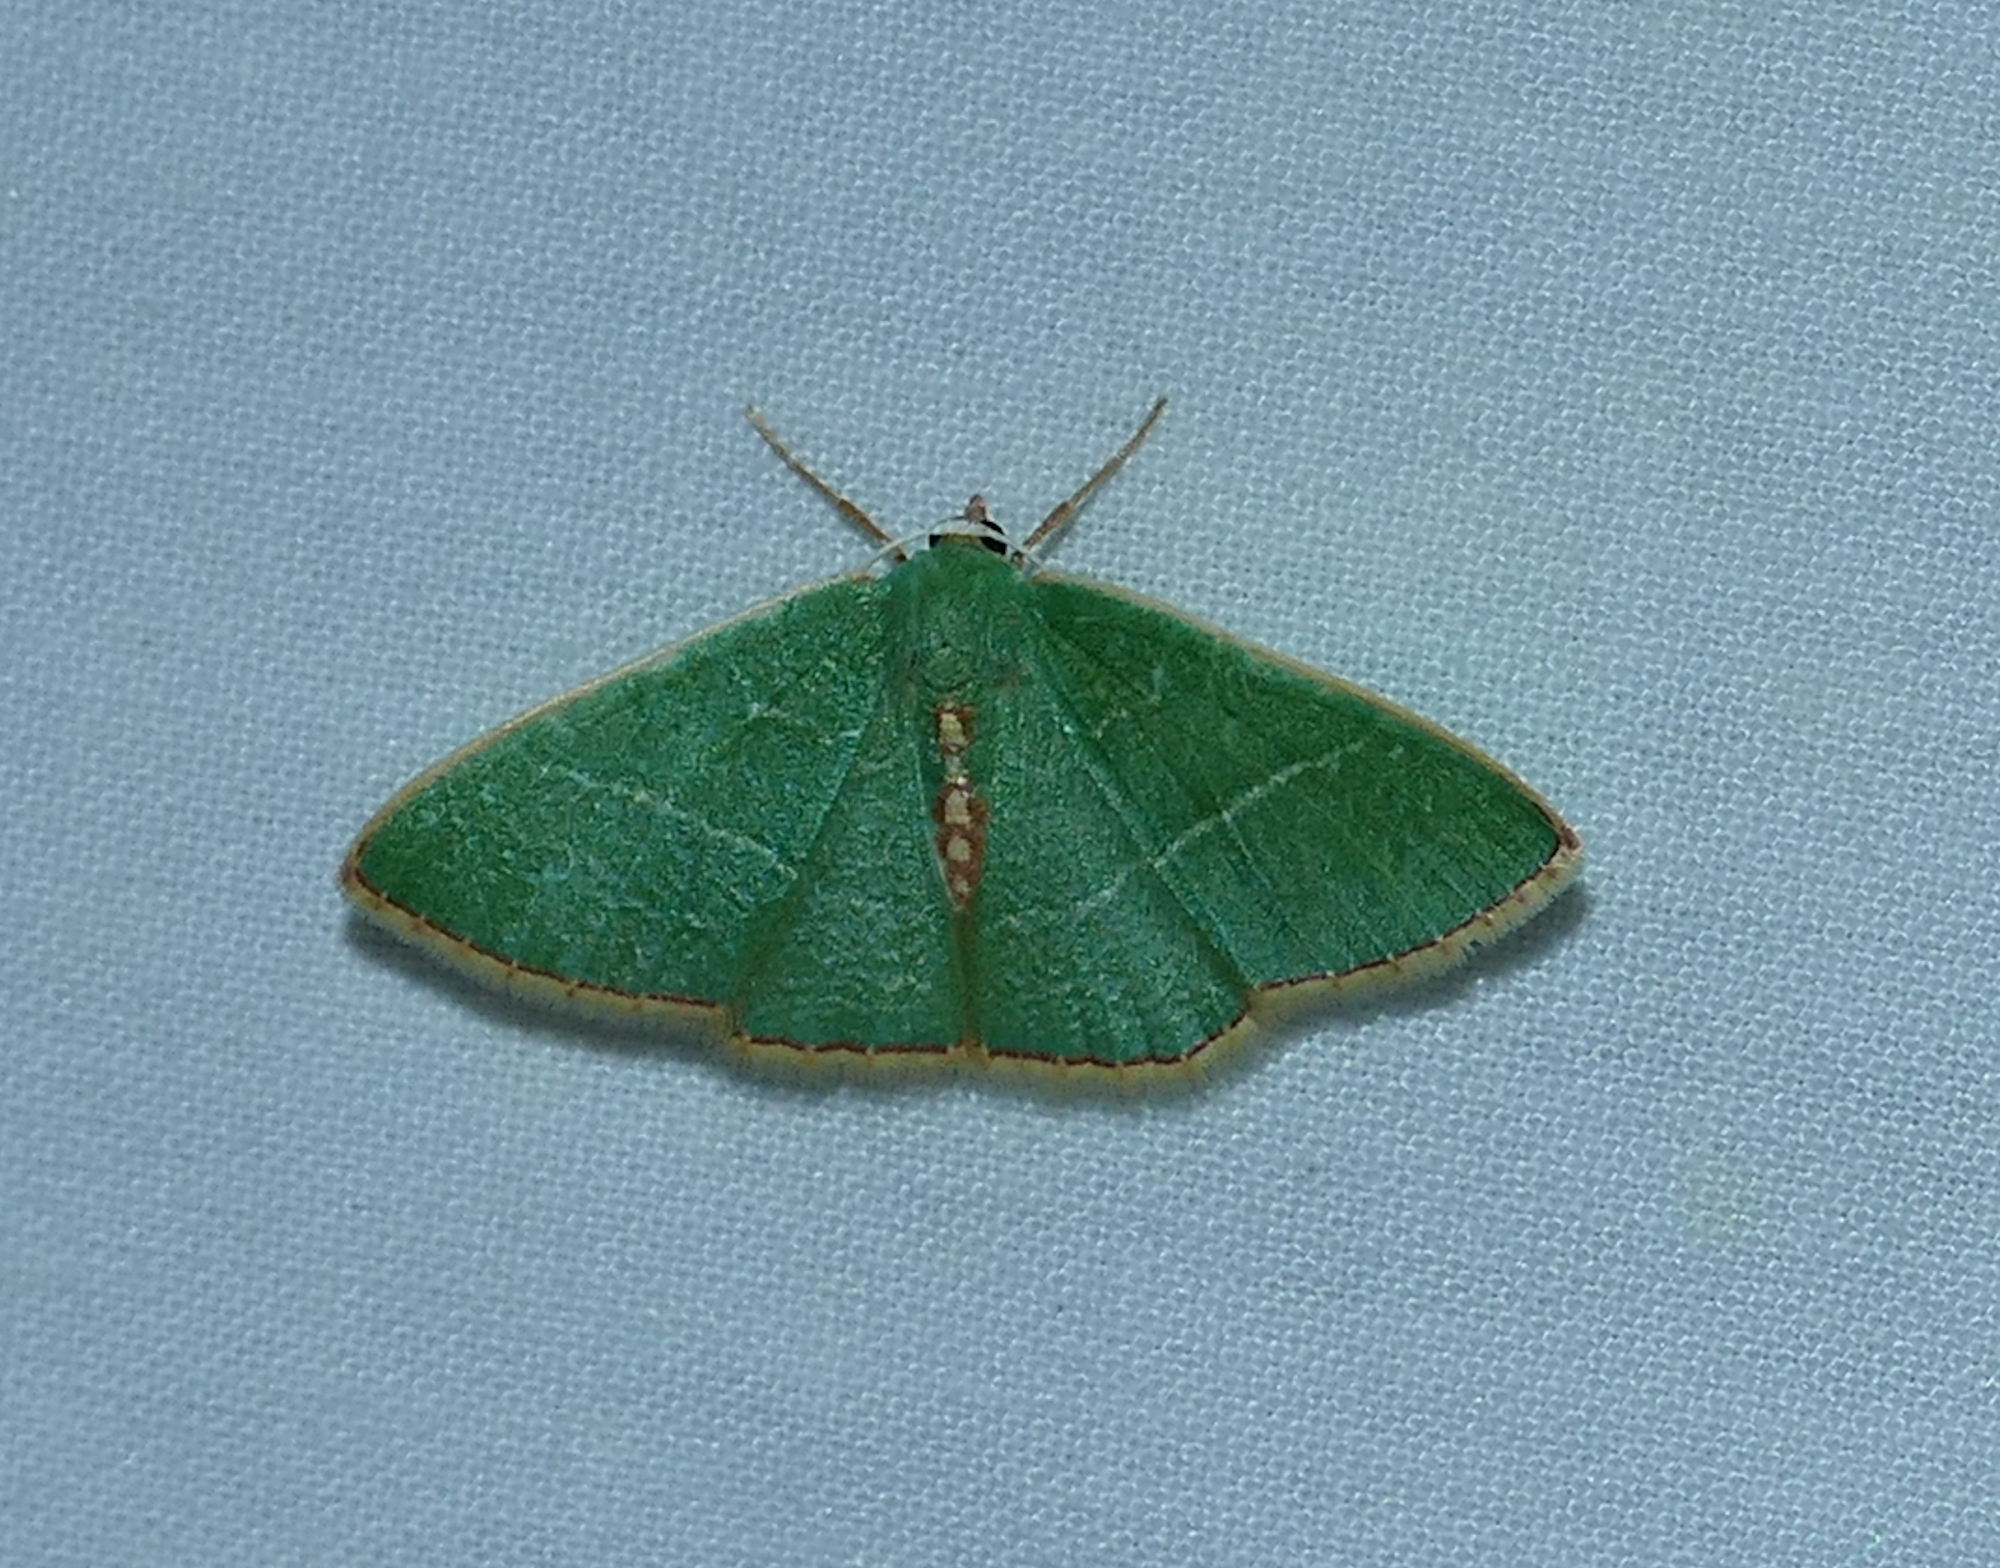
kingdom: Animalia
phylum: Arthropoda
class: Insecta
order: Lepidoptera
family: Geometridae
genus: Nemoria
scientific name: Nemoria festaria
